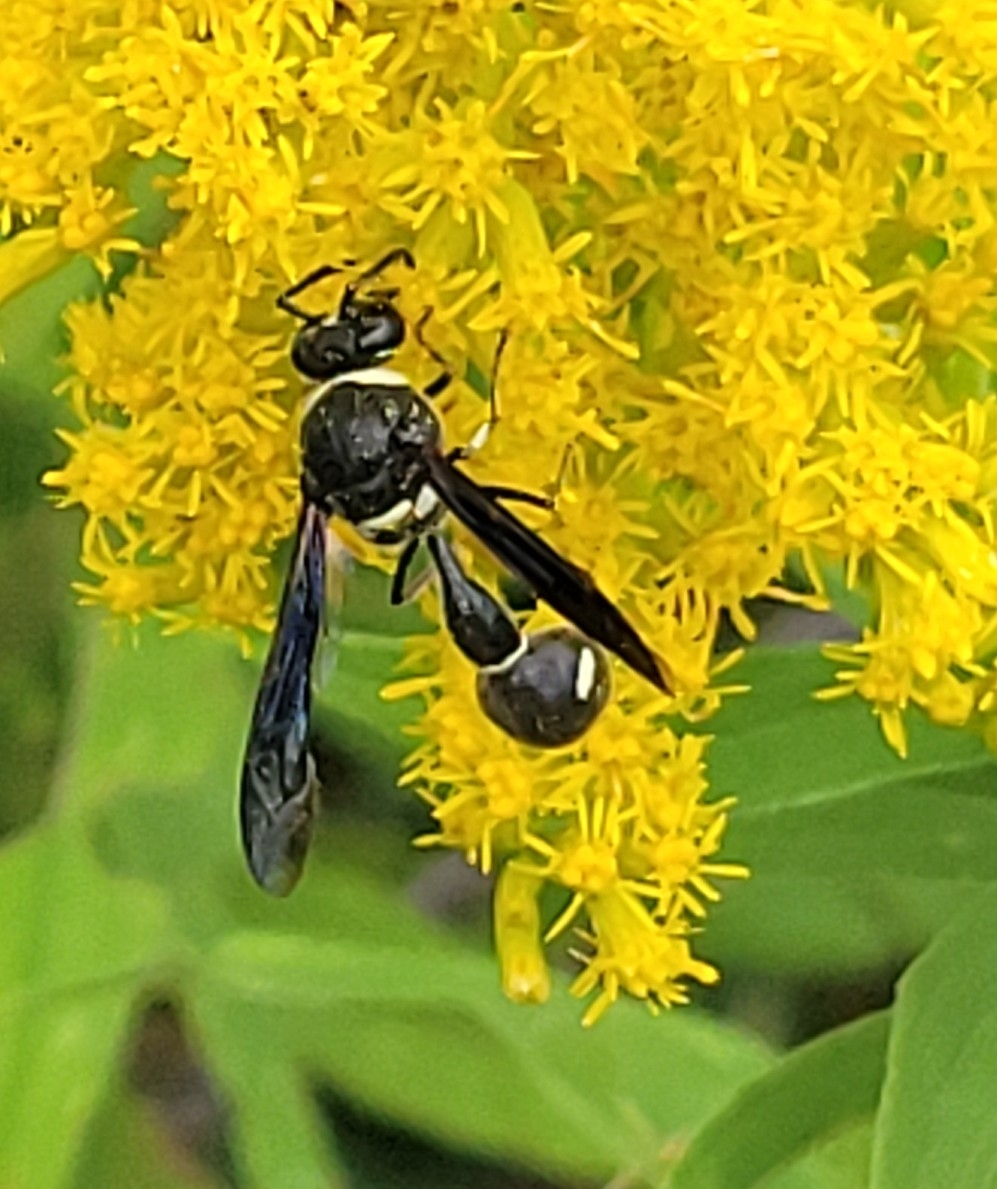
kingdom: Animalia
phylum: Arthropoda
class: Insecta
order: Hymenoptera
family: Vespidae
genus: Eumenes
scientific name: Eumenes fraternus
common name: Fraternal potter wasp
